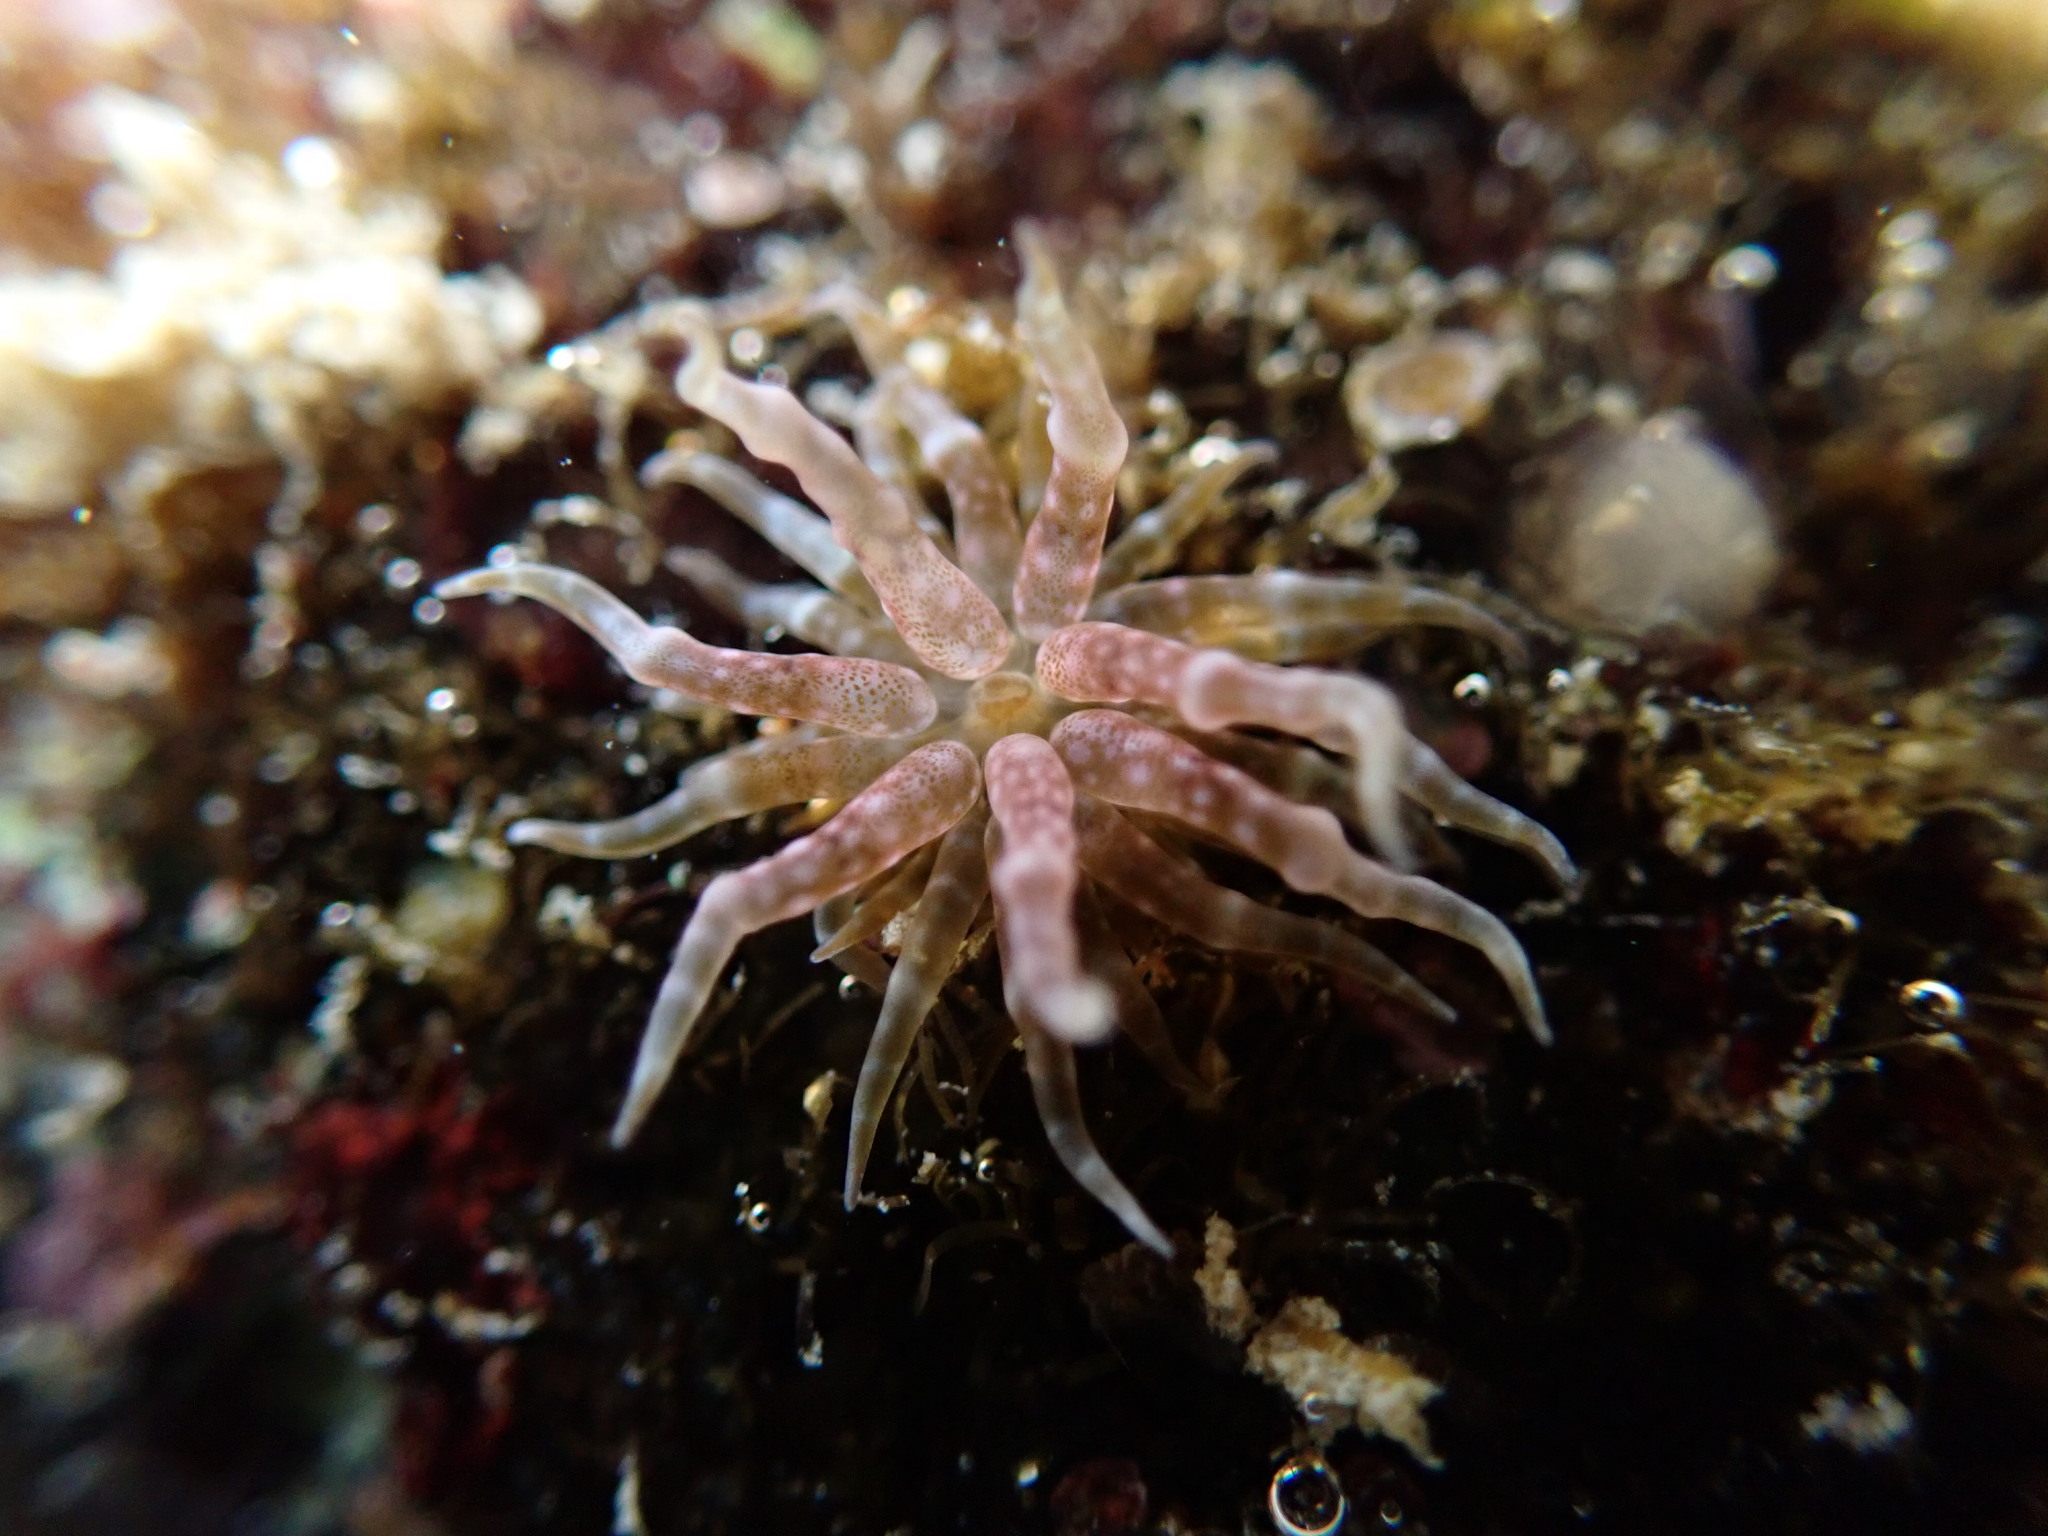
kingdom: Animalia
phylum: Cnidaria
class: Anthozoa
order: Actiniaria
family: Boloceroididae
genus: Boloceroides
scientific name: Boloceroides mcmurrichi
